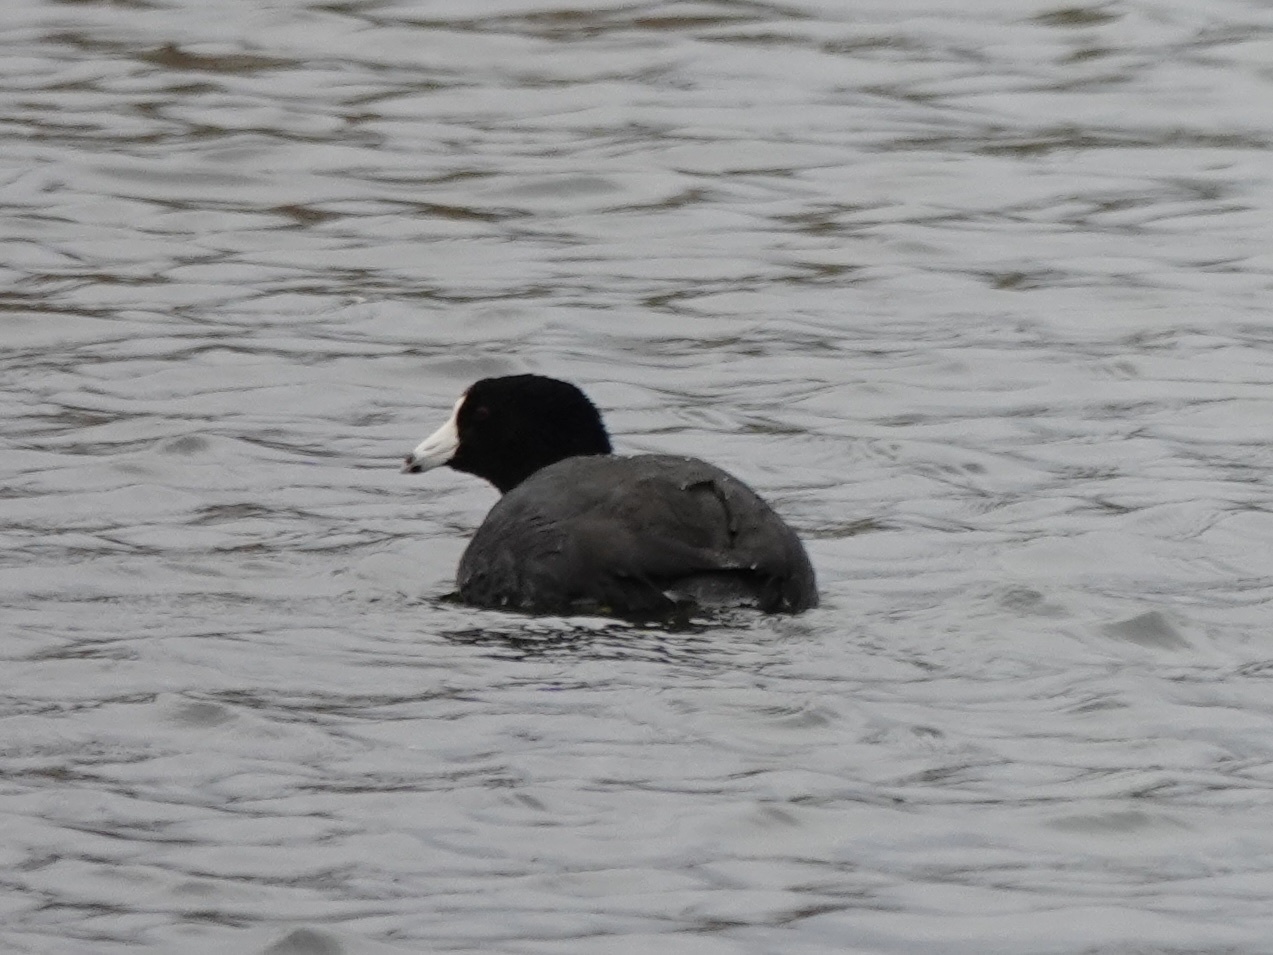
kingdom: Animalia
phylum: Chordata
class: Aves
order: Gruiformes
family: Rallidae
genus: Fulica
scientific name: Fulica americana
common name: American coot
